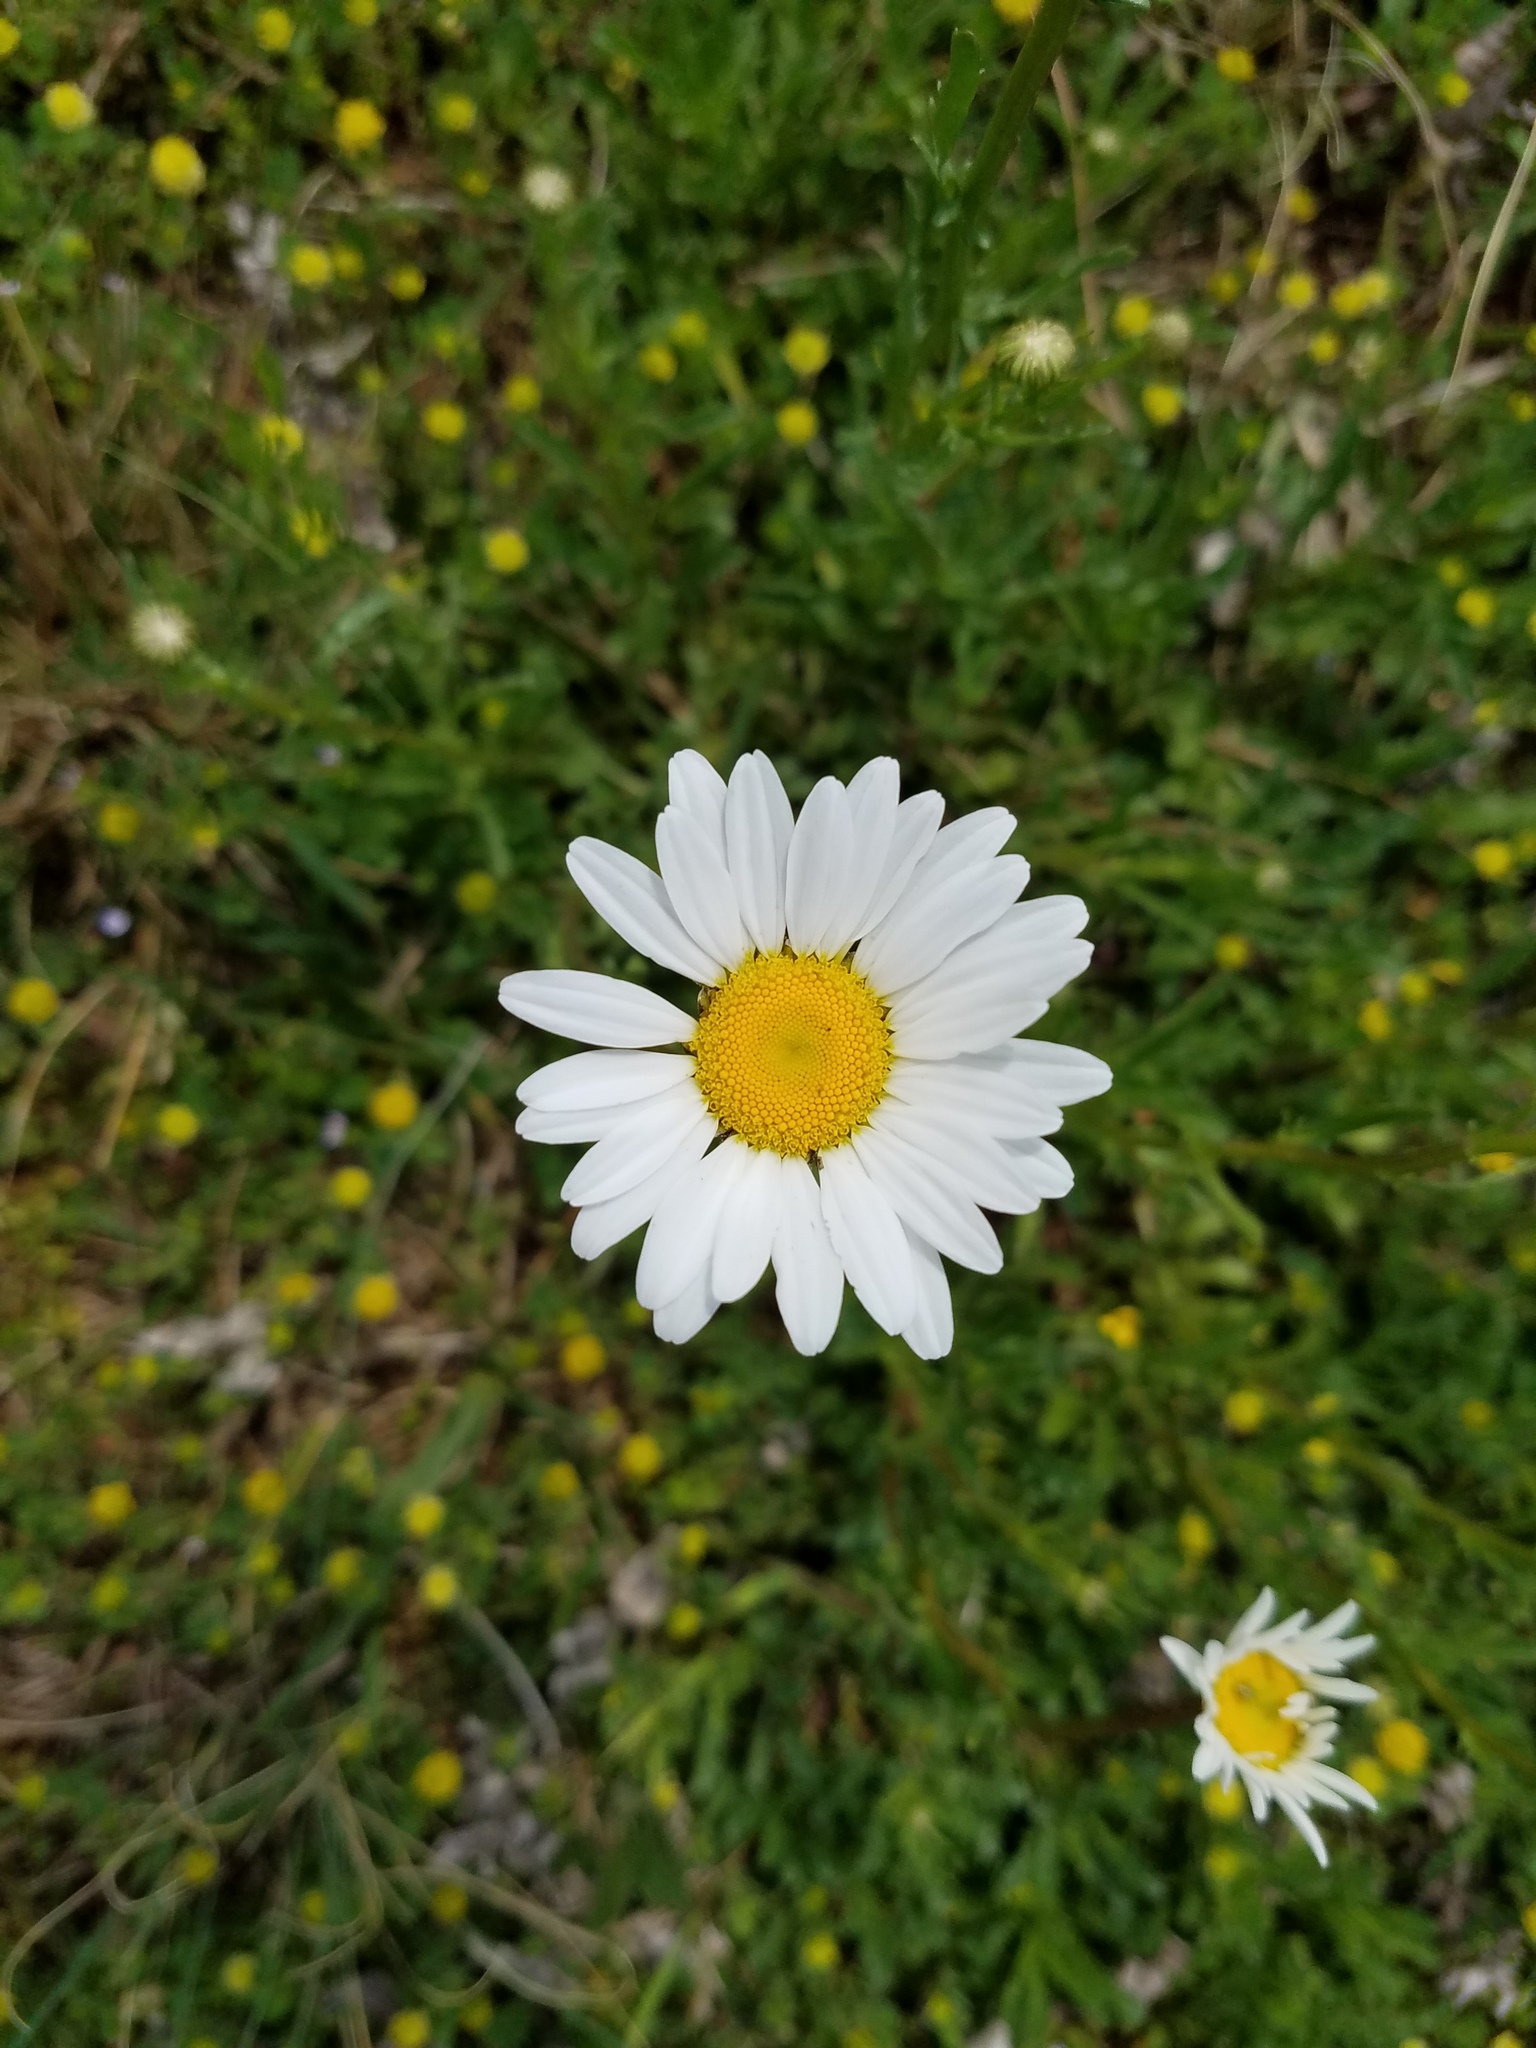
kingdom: Plantae
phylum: Tracheophyta
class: Magnoliopsida
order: Asterales
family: Asteraceae
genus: Leucanthemum
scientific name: Leucanthemum vulgare
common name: Oxeye daisy
